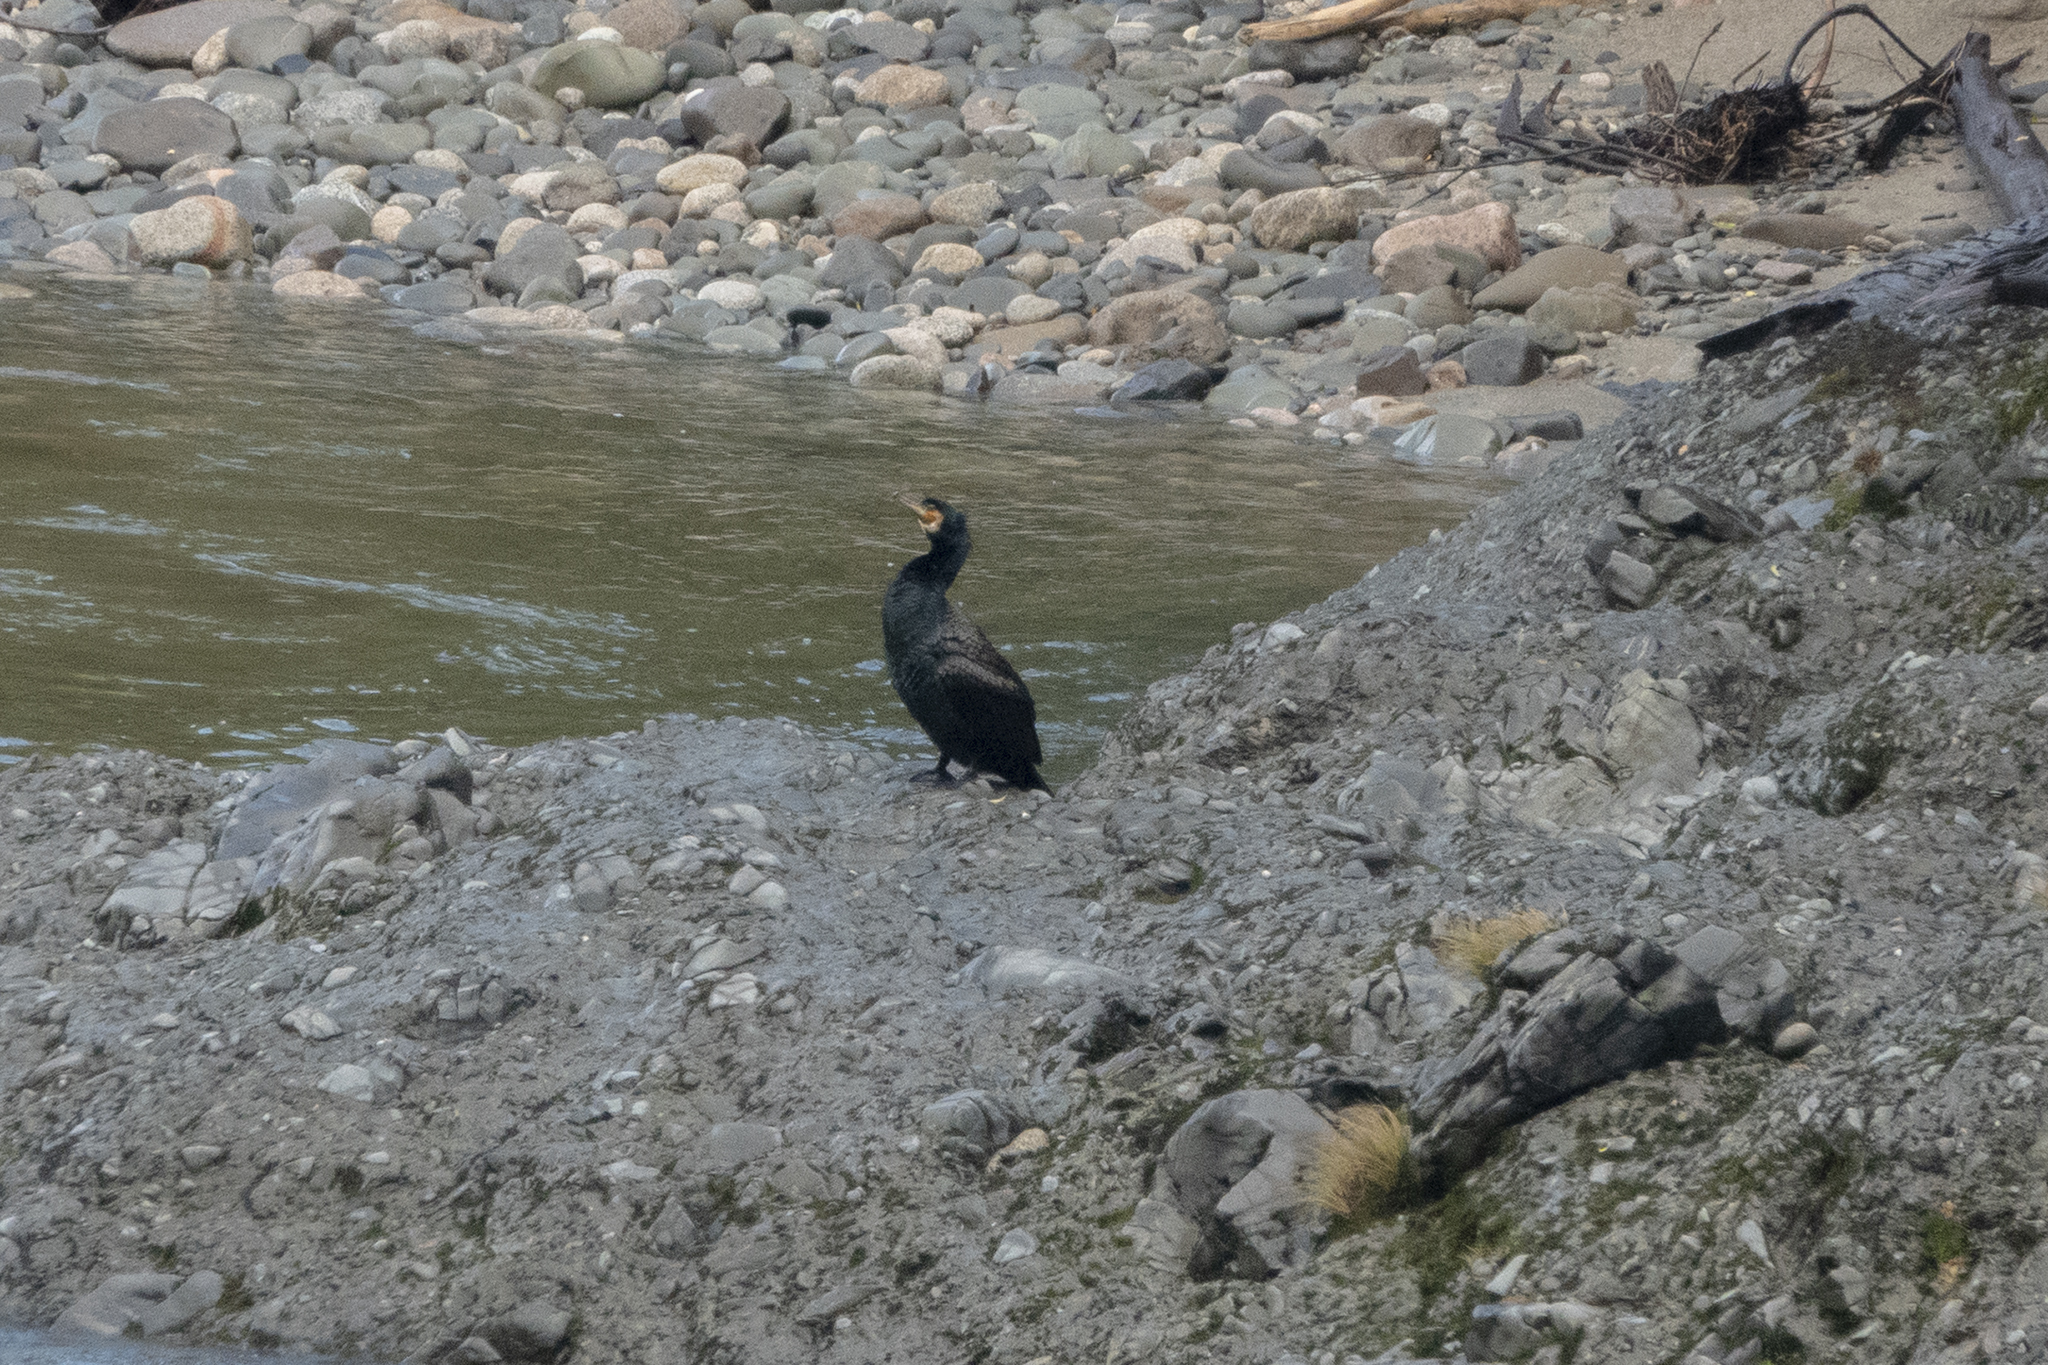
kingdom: Animalia
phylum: Chordata
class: Aves
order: Suliformes
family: Phalacrocoracidae
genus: Phalacrocorax
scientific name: Phalacrocorax carbo
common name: Great cormorant
